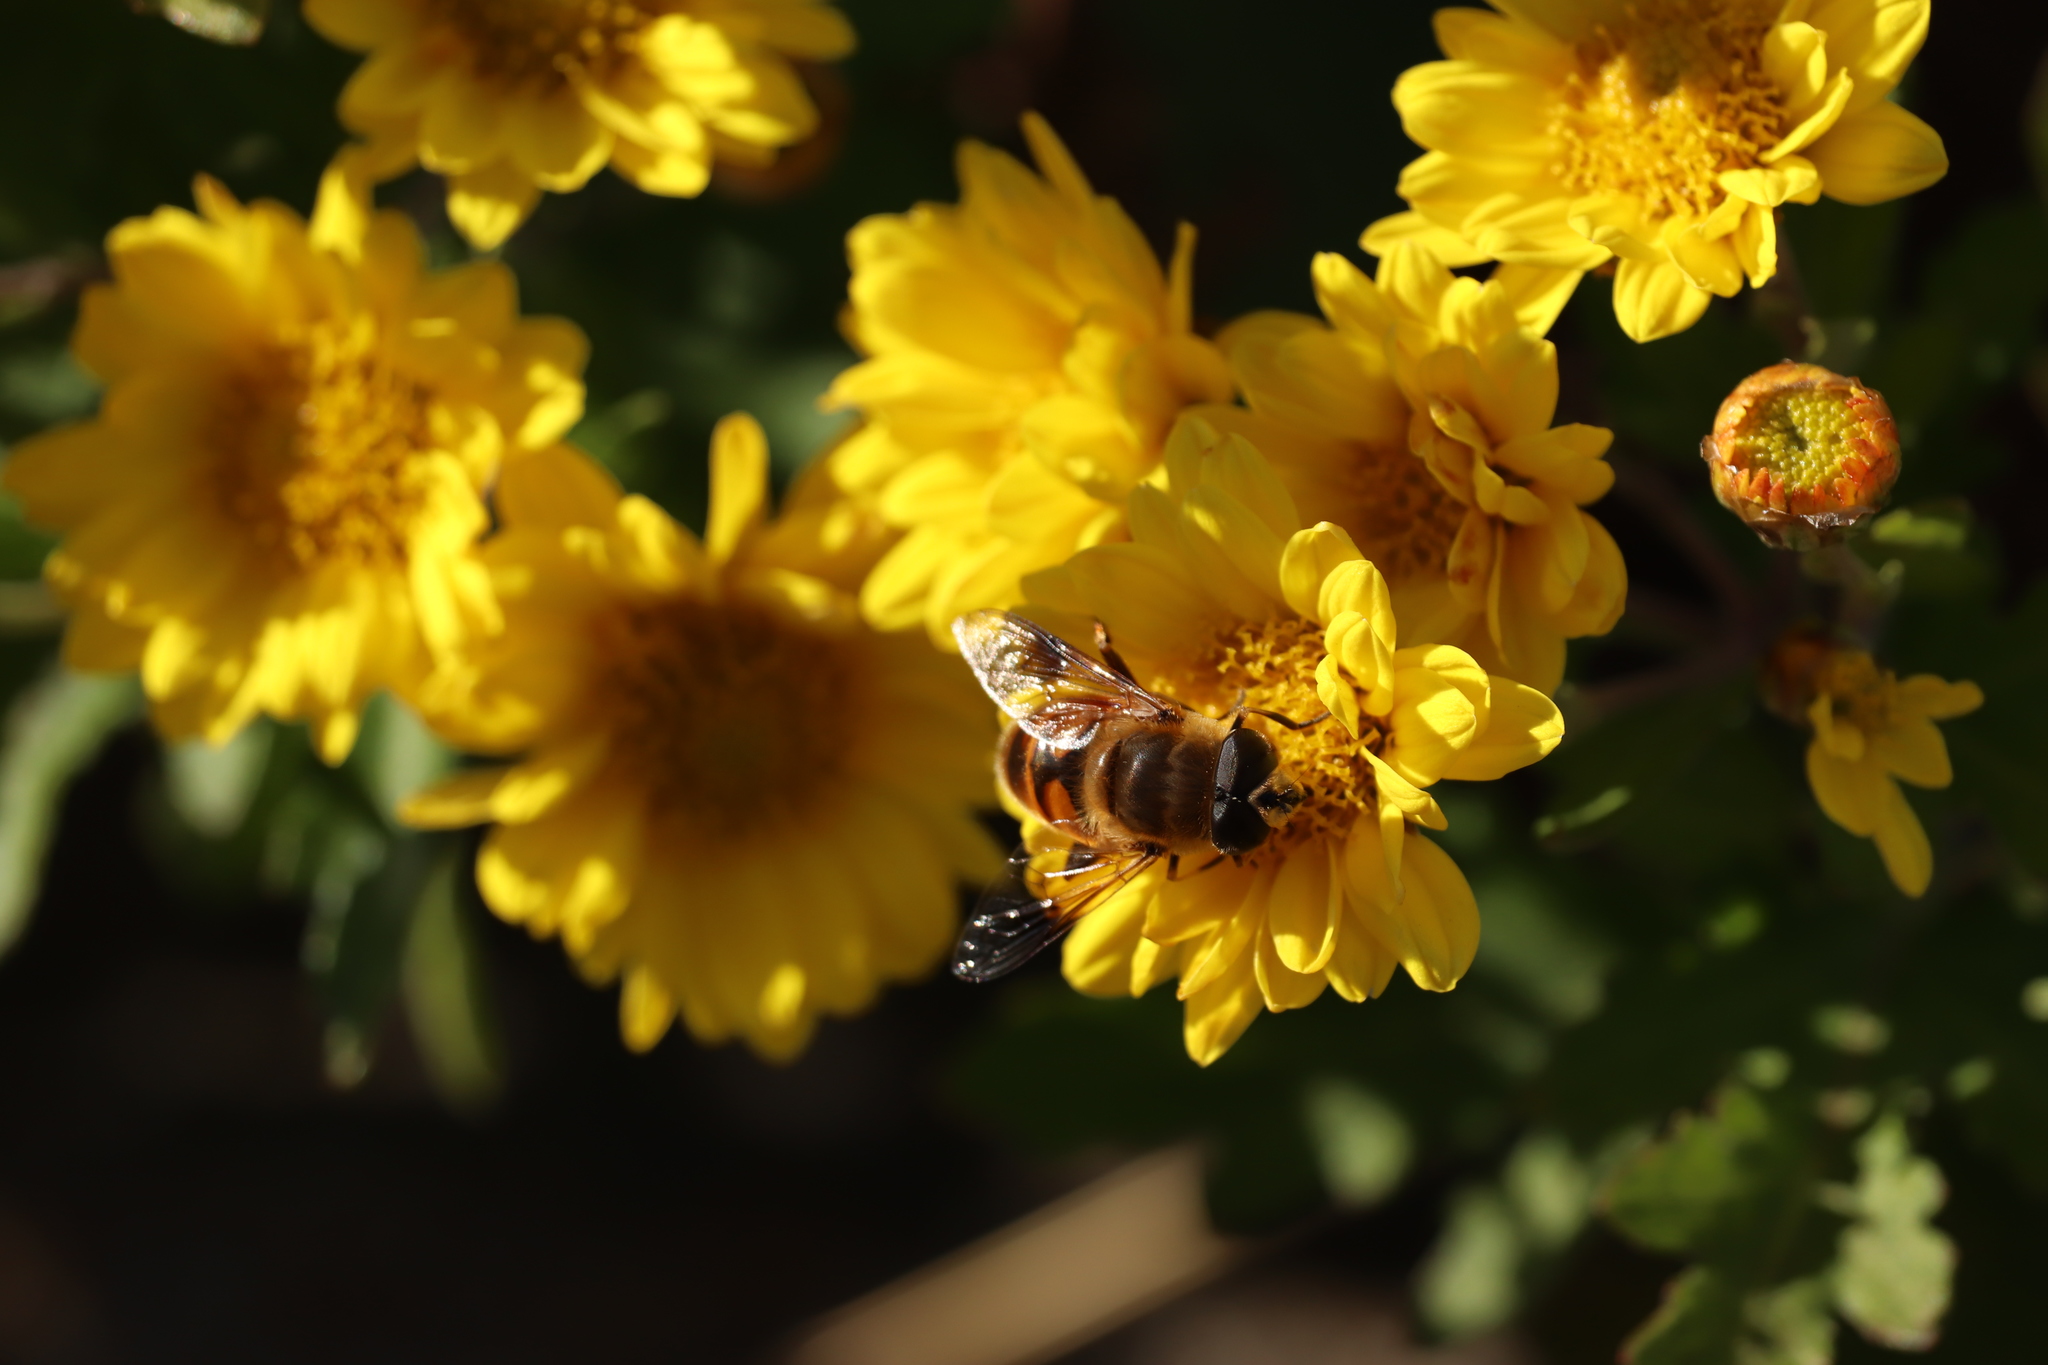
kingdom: Animalia
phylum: Arthropoda
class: Insecta
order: Diptera
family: Syrphidae
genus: Eristalis
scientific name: Eristalis tenax
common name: Drone fly
